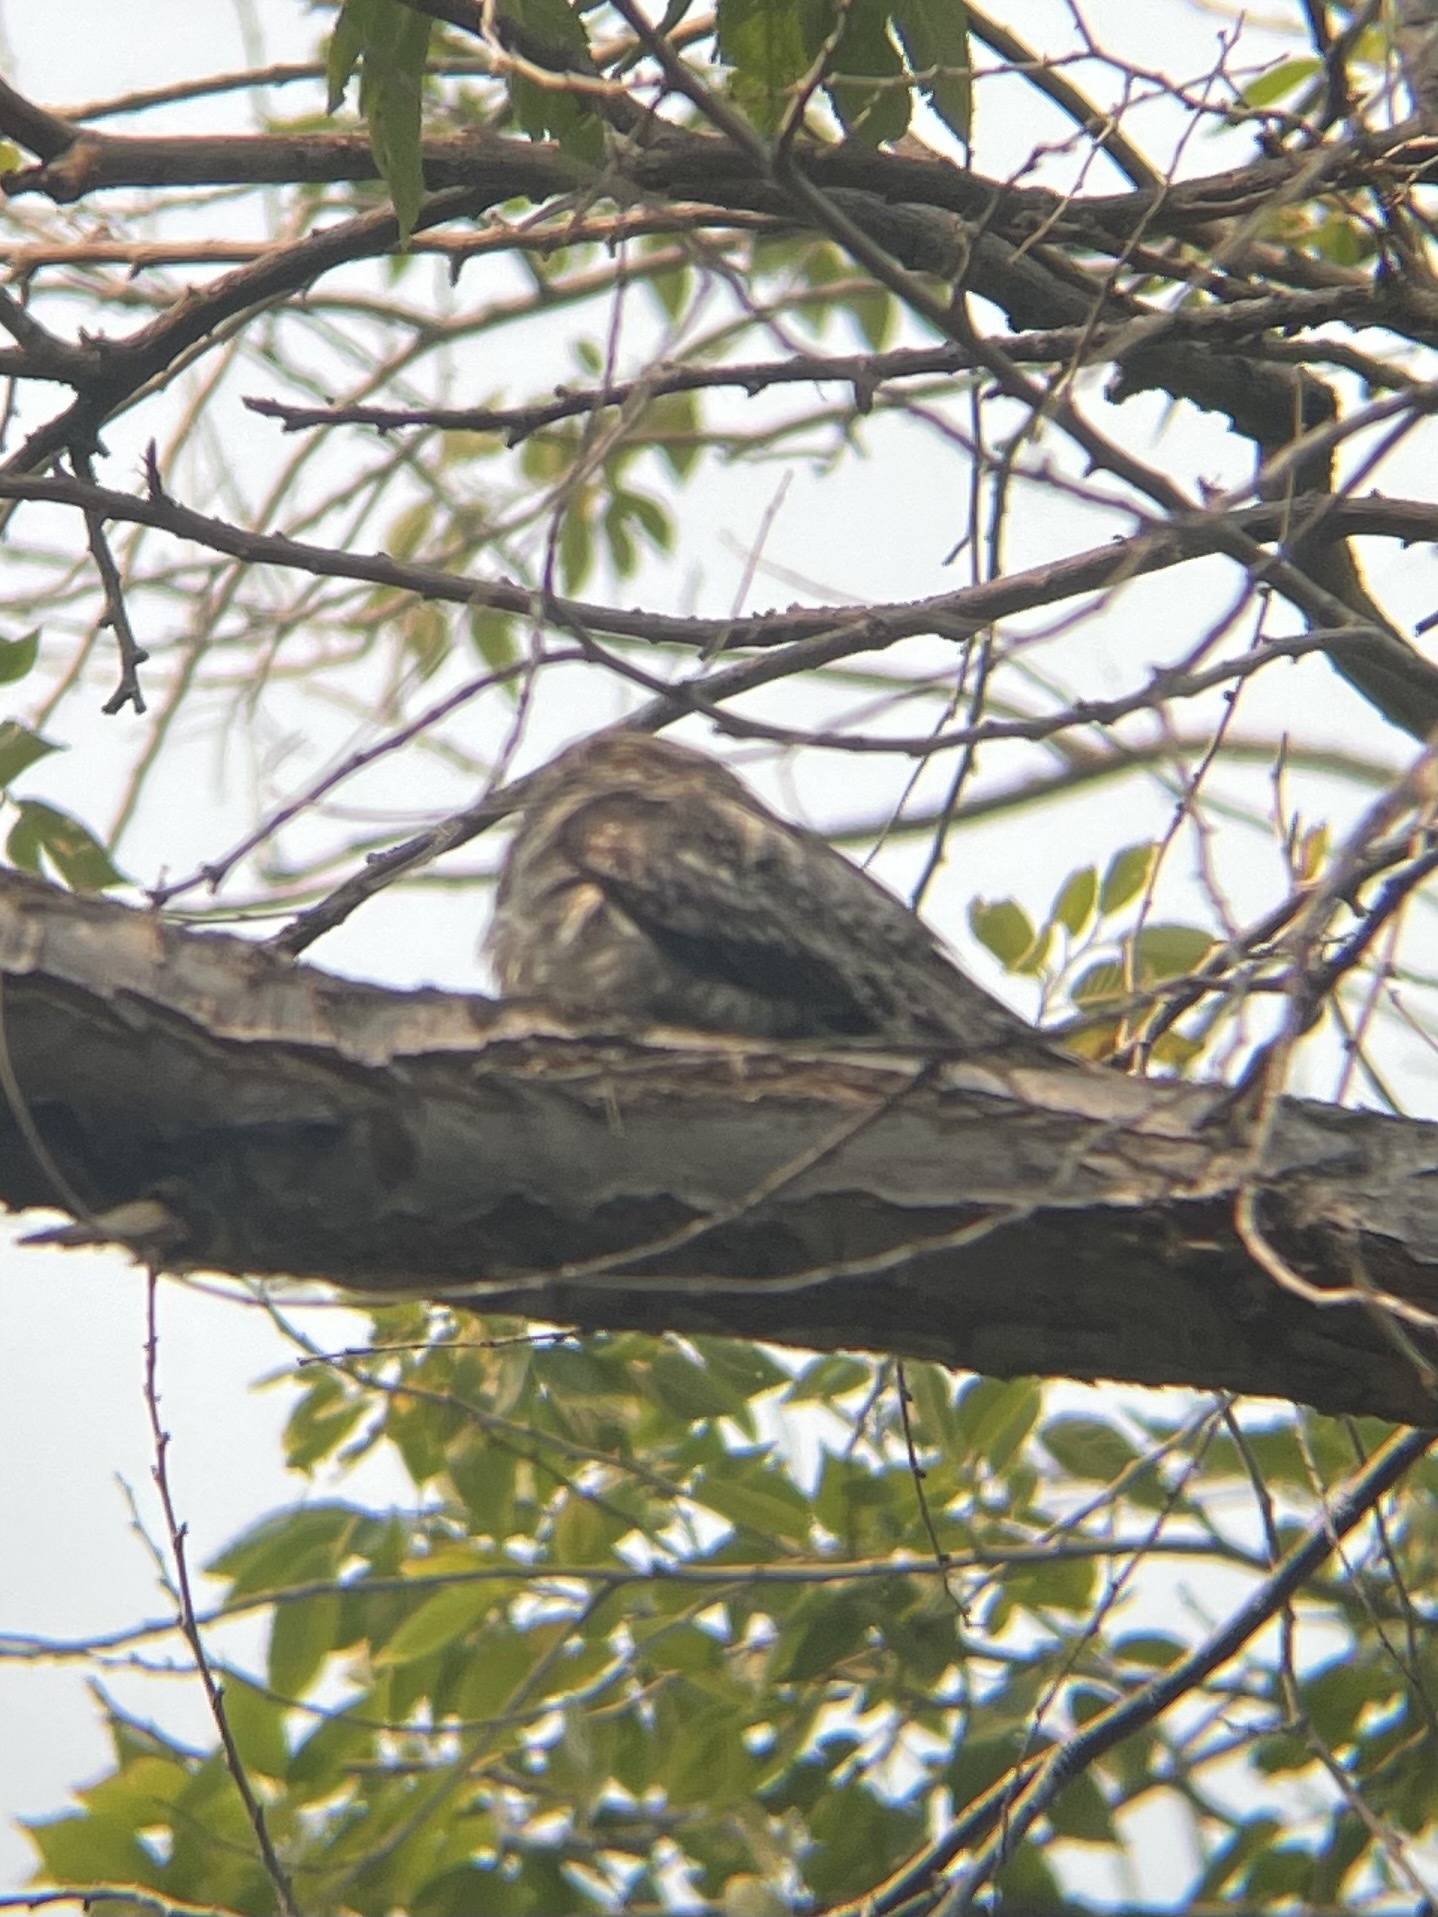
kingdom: Animalia
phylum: Chordata
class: Aves
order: Caprimulgiformes
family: Caprimulgidae
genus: Chordeiles
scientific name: Chordeiles minor
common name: Common nighthawk
